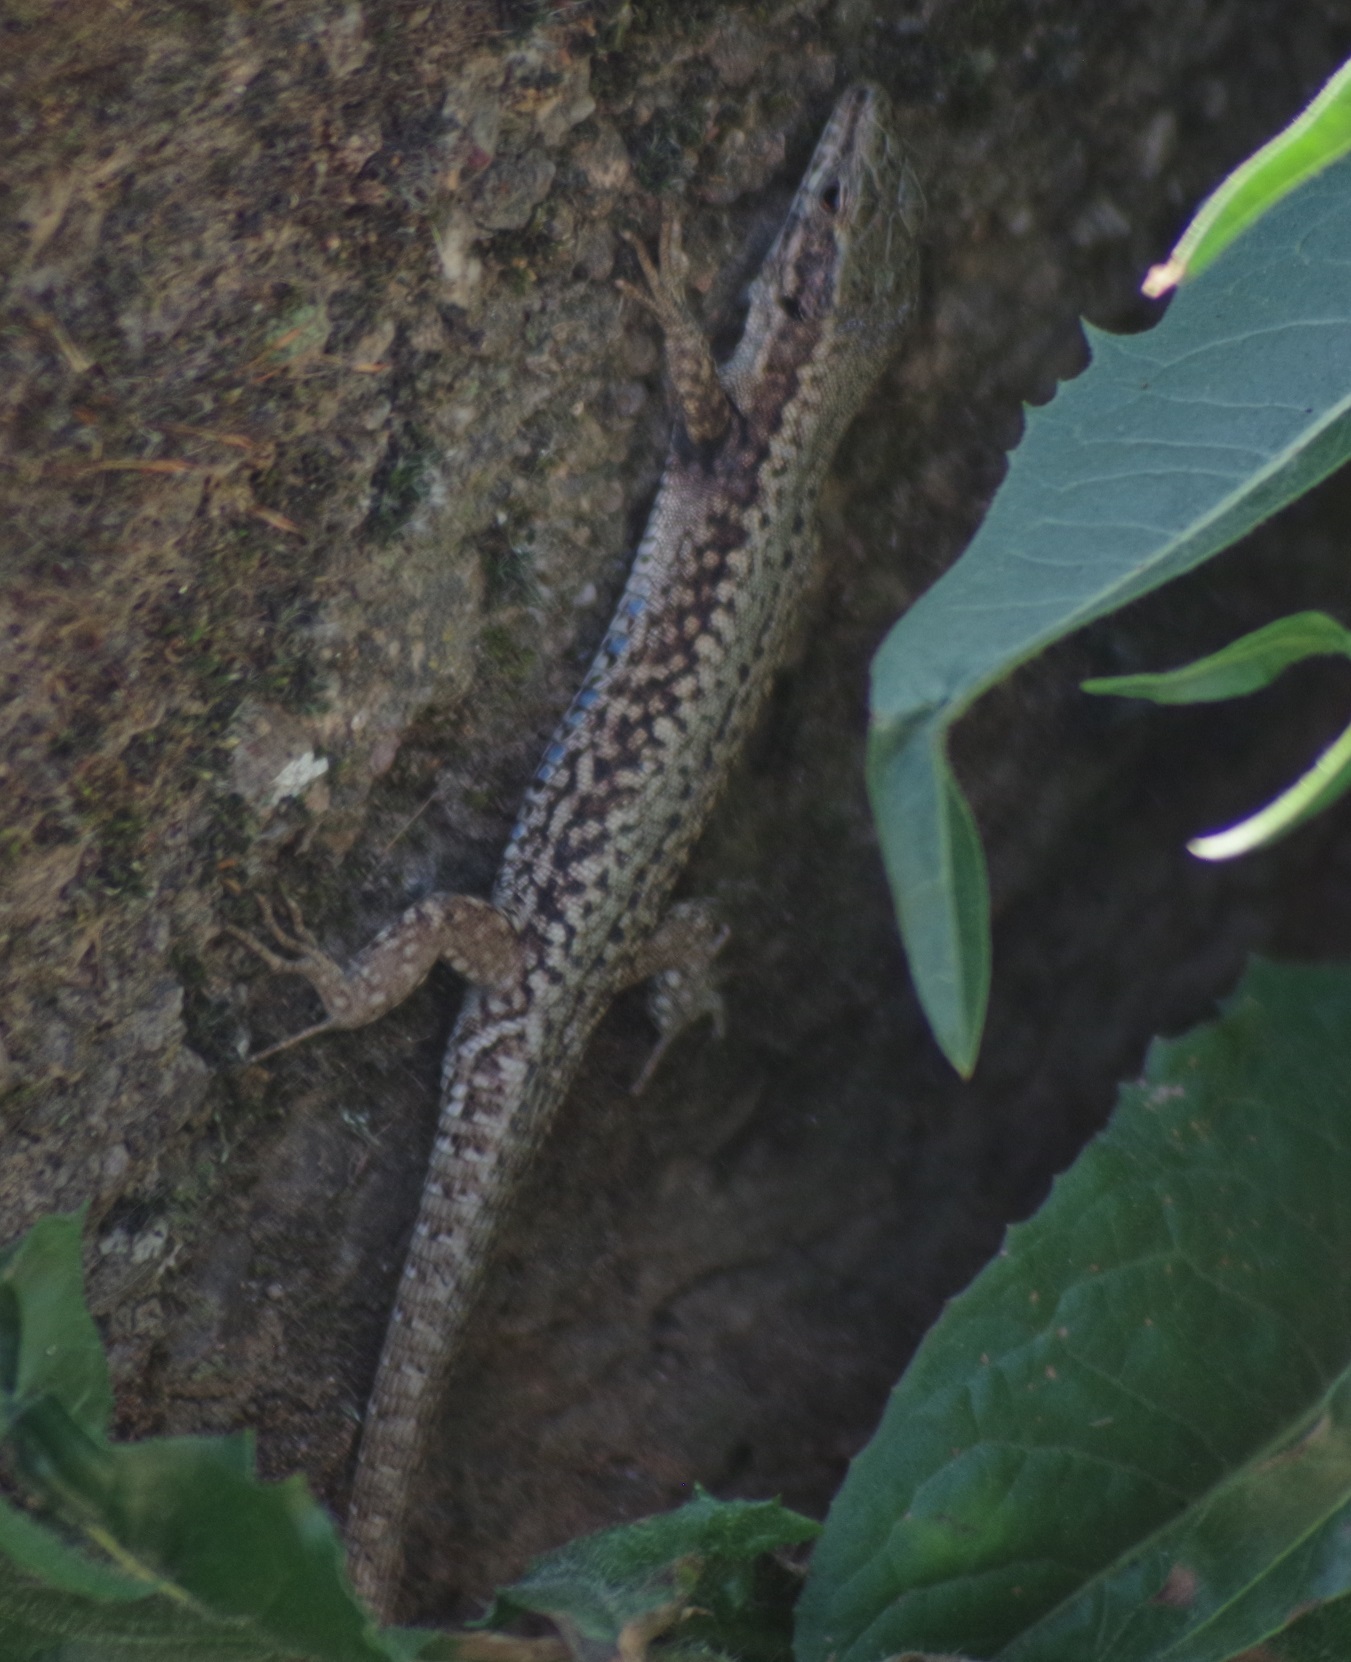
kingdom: Animalia
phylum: Chordata
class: Squamata
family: Lacertidae
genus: Podarcis
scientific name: Podarcis muralis
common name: Common wall lizard
